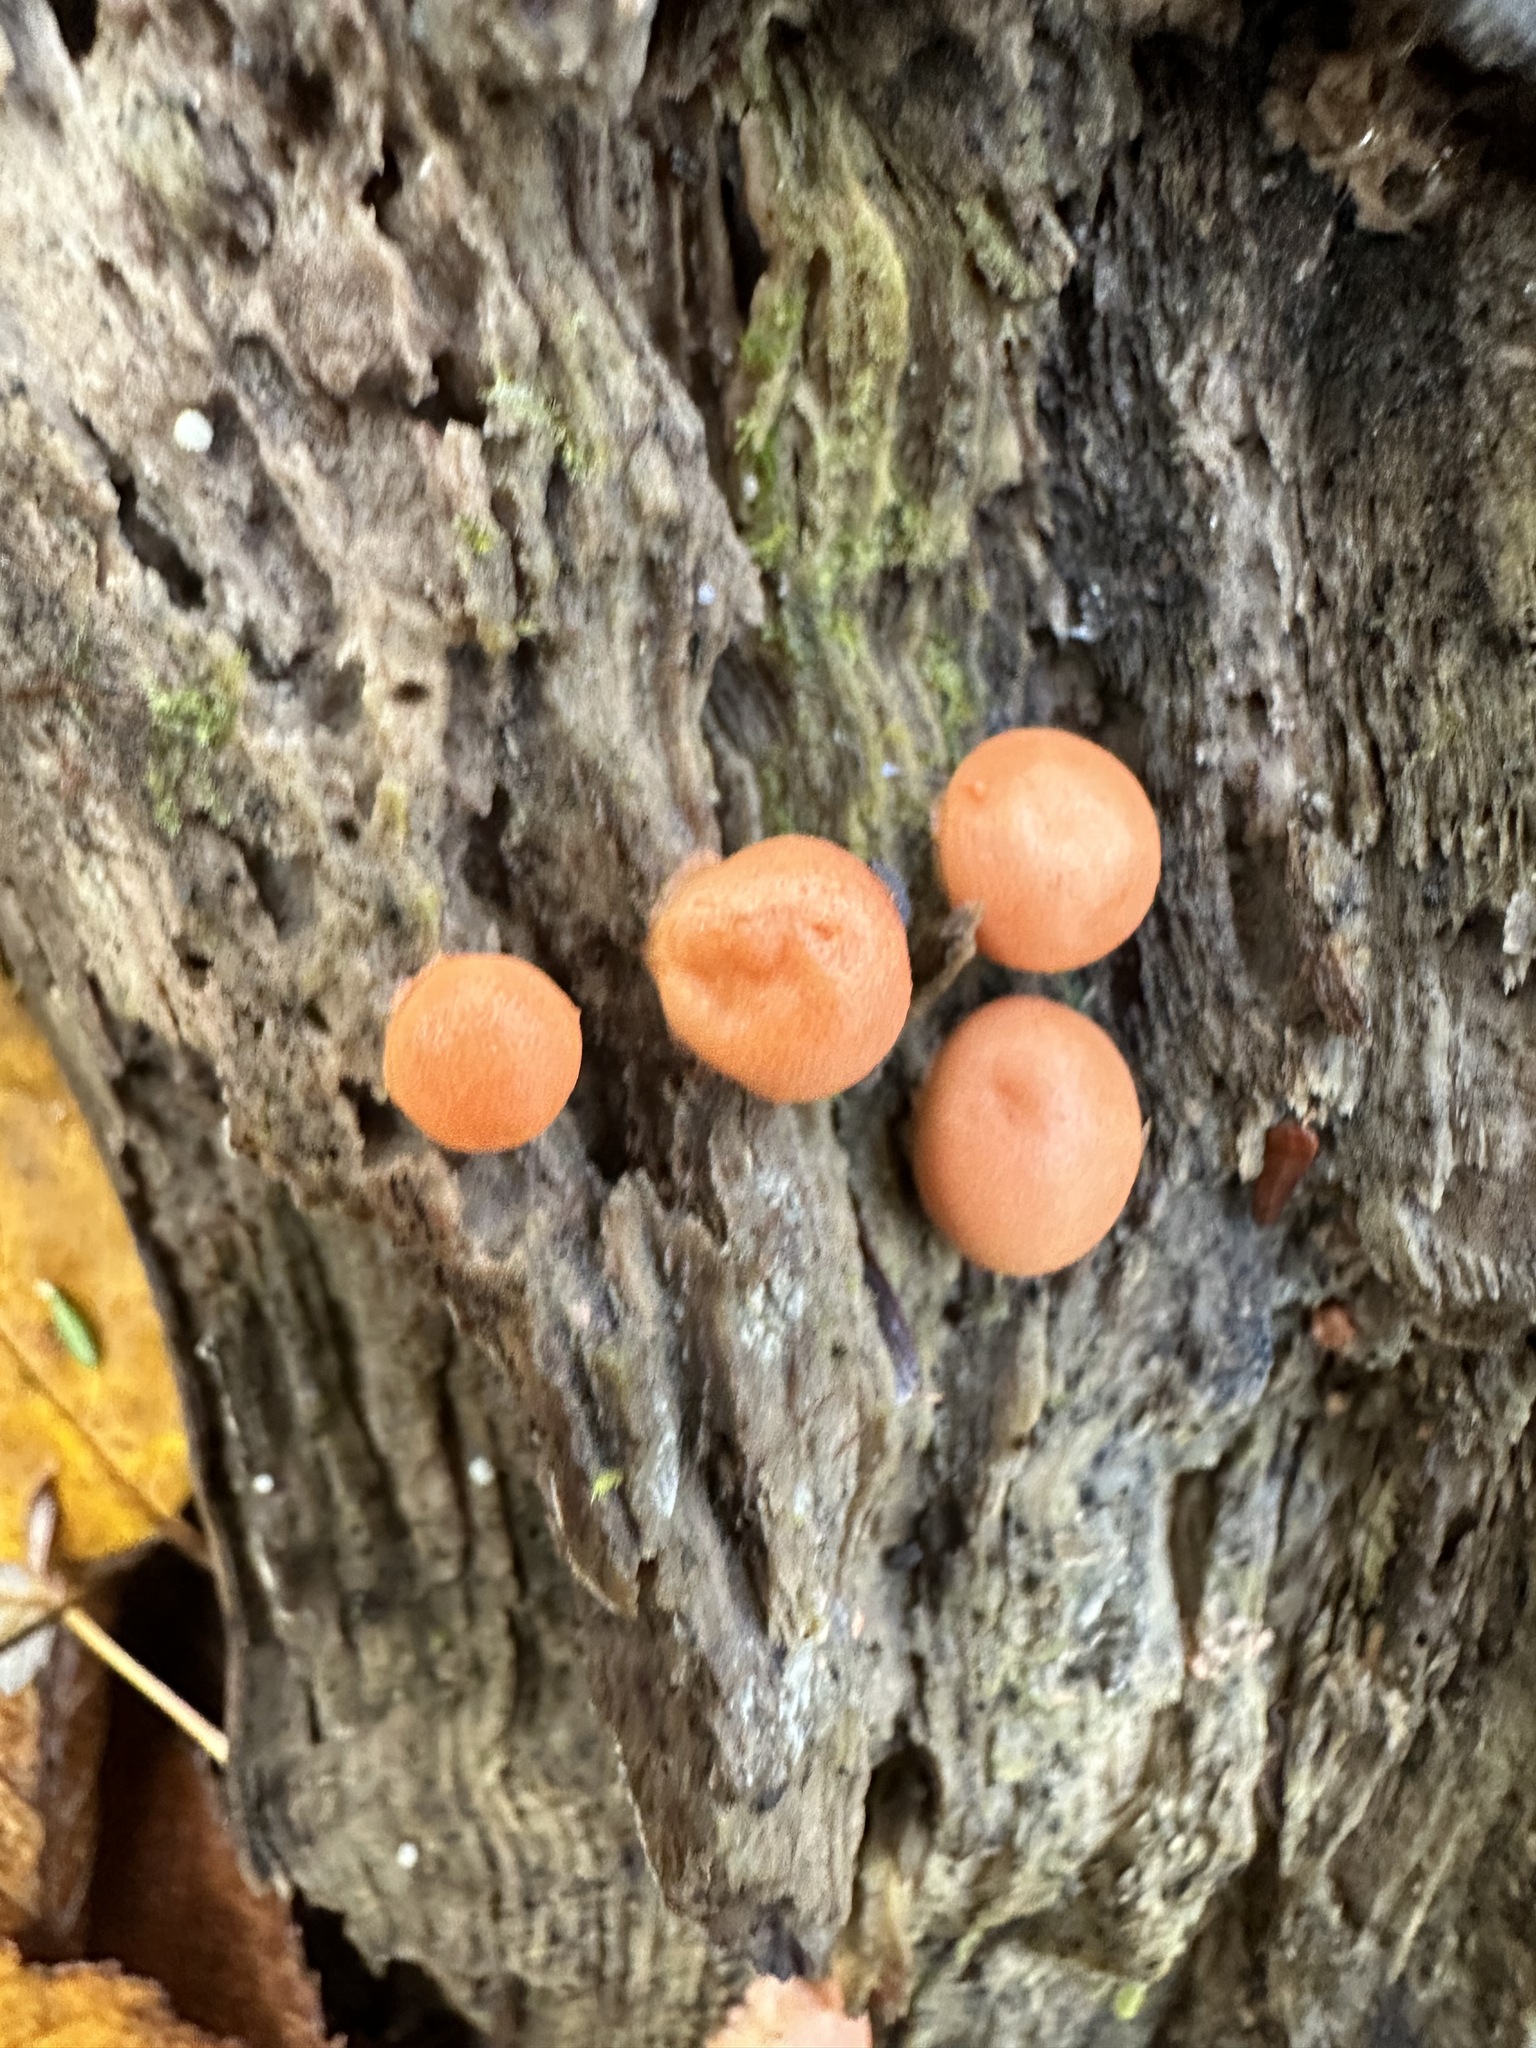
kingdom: Protozoa
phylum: Mycetozoa
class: Myxomycetes
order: Cribrariales
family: Tubiferaceae
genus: Lycogala
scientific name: Lycogala epidendrum
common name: Wolf's milk
